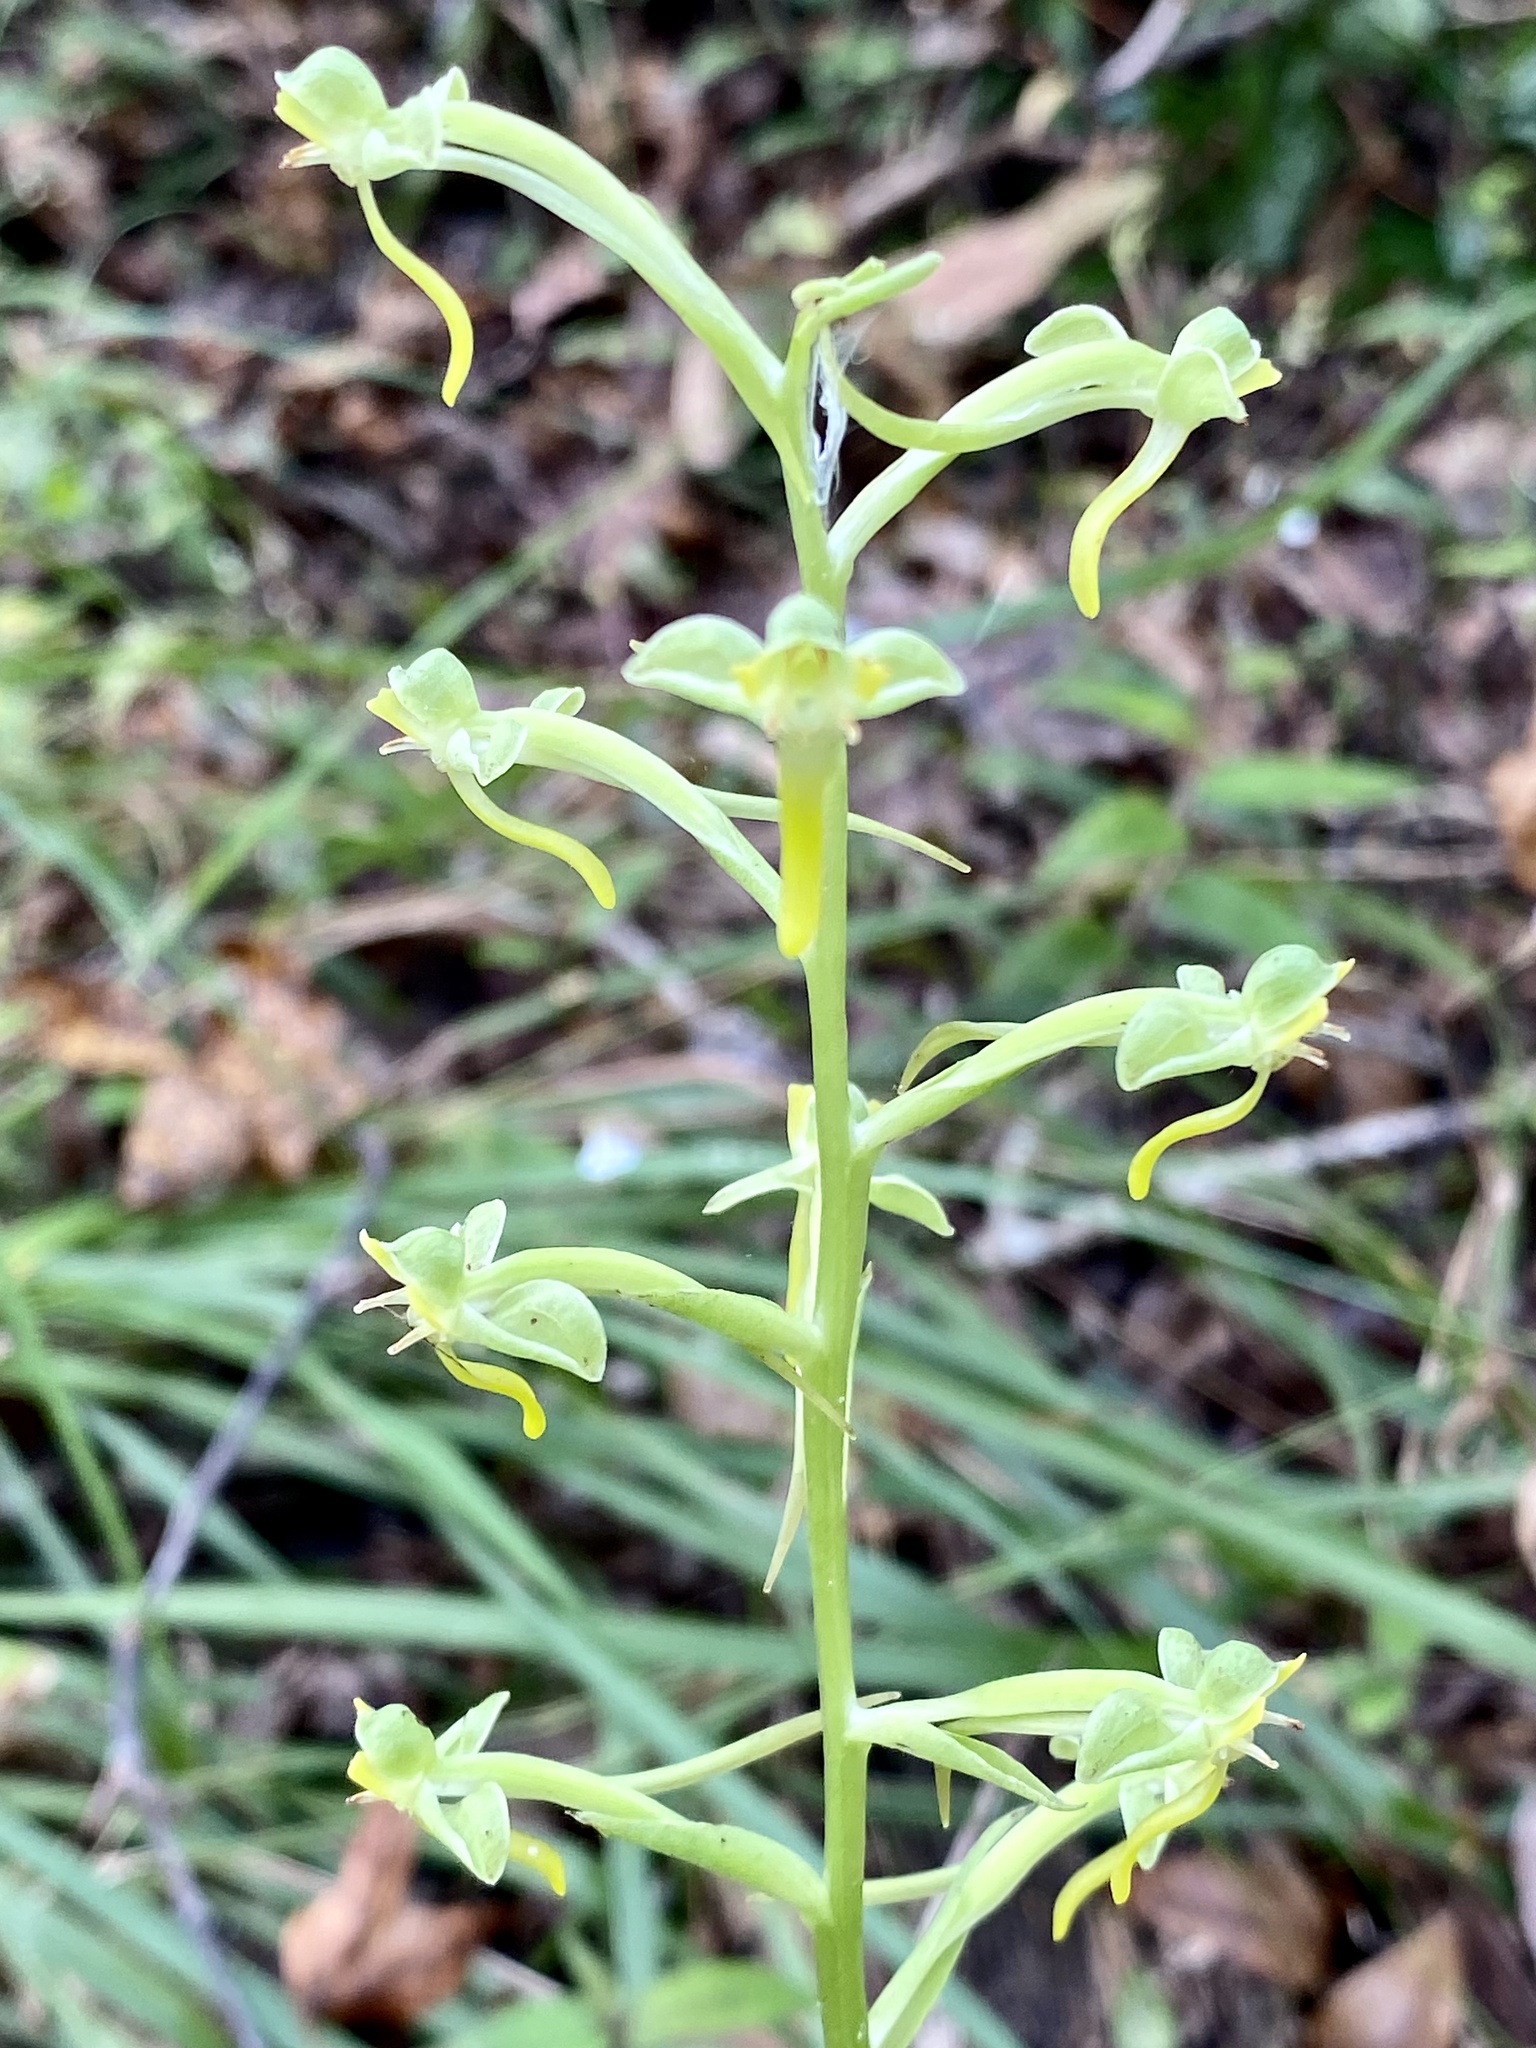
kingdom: Plantae
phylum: Tracheophyta
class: Liliopsida
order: Asparagales
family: Orchidaceae
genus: Habenaria
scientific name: Habenaria floribunda
